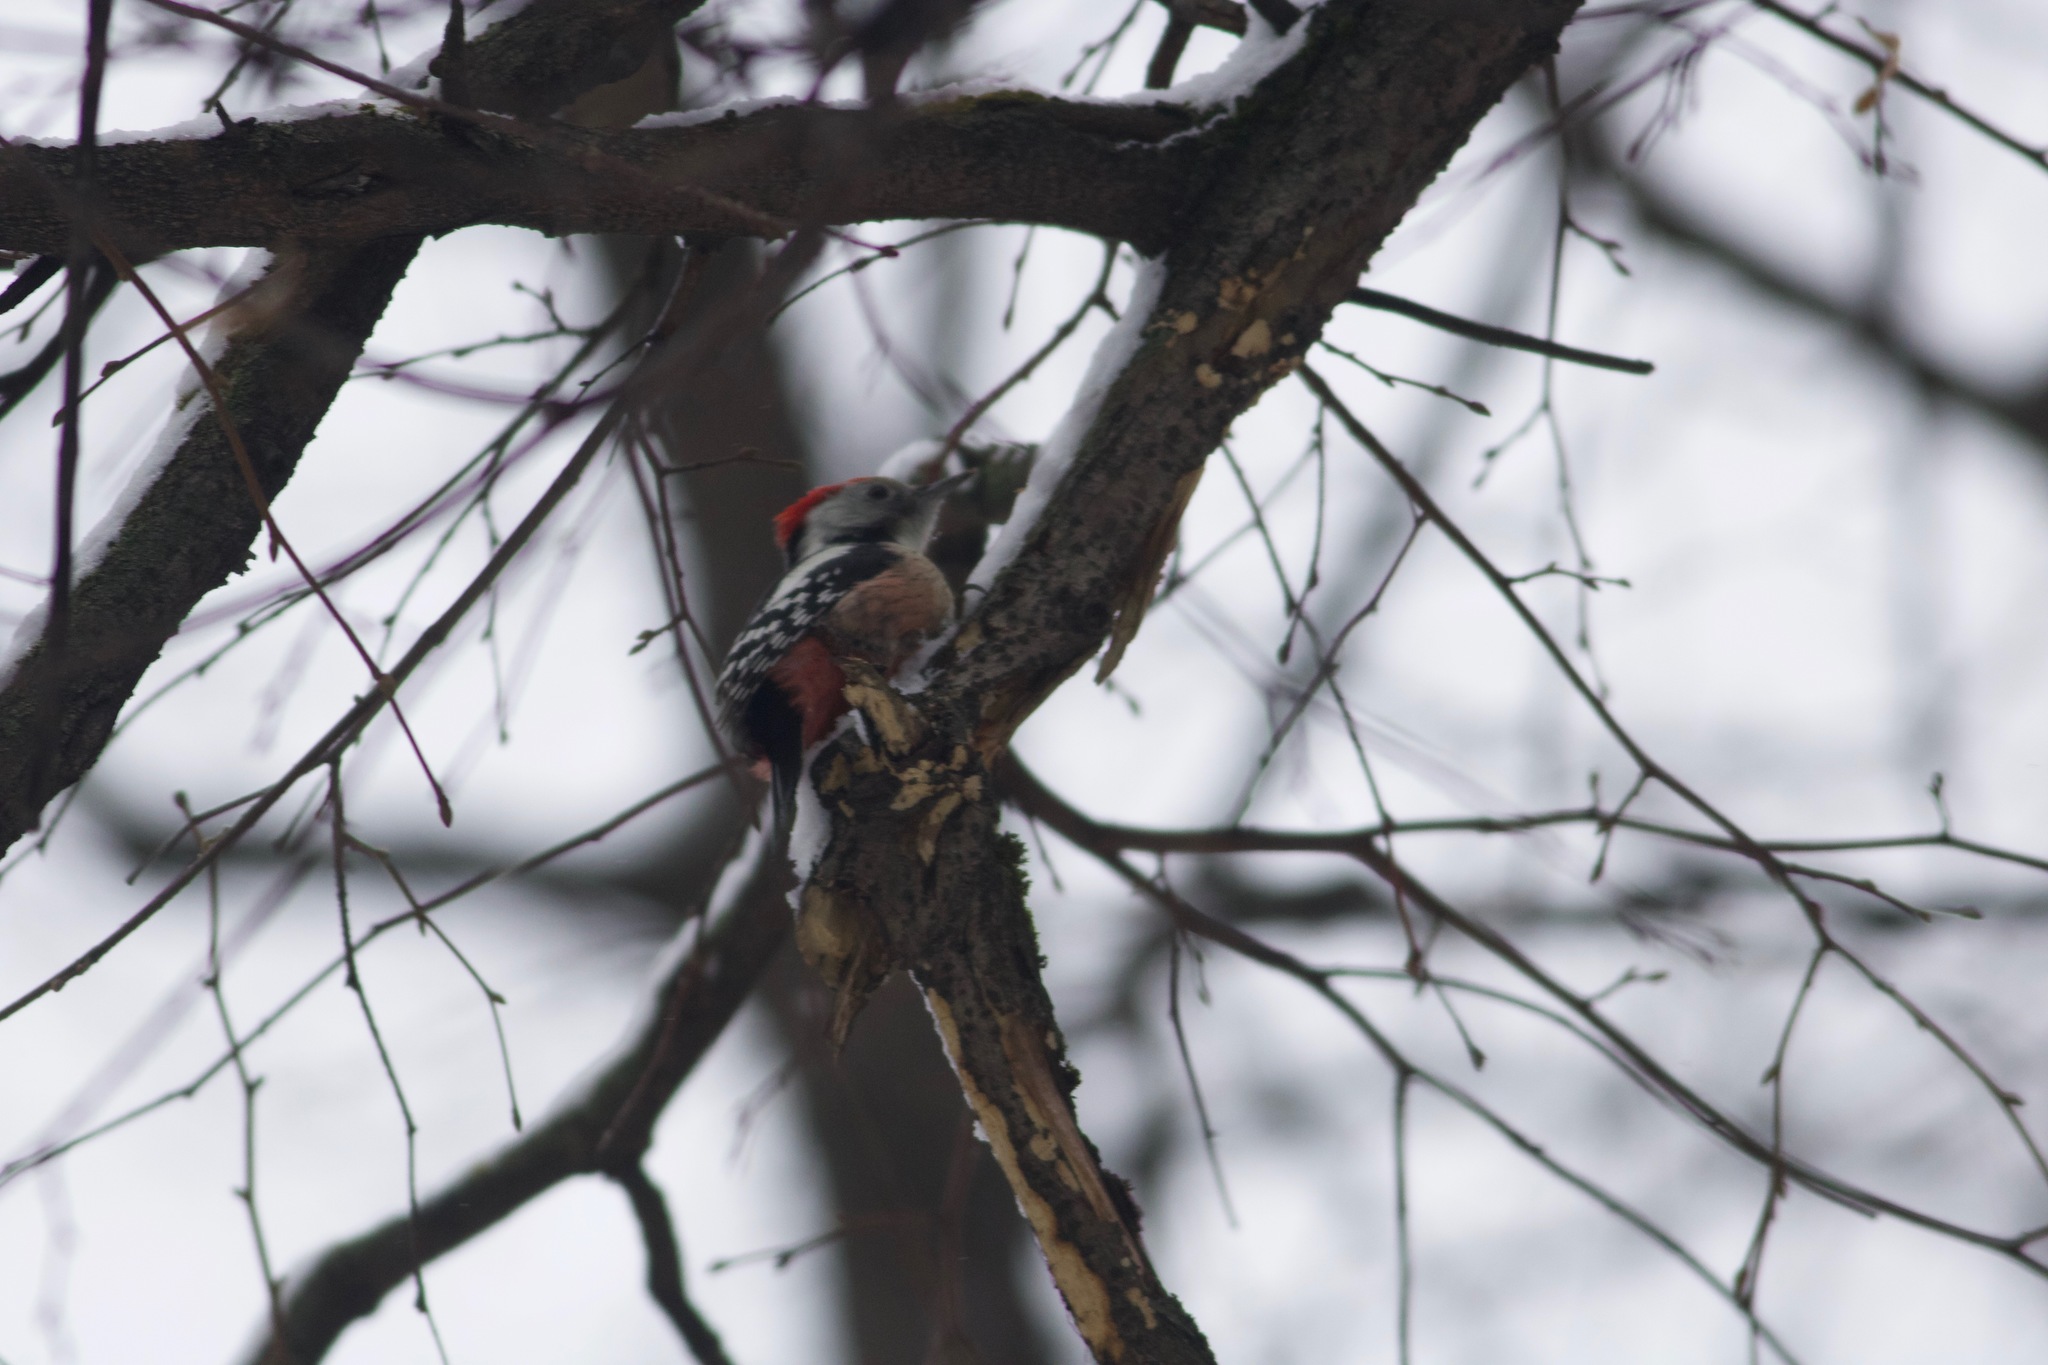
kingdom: Animalia
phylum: Chordata
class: Aves
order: Piciformes
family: Picidae
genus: Dendrocoptes
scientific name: Dendrocoptes medius
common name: Middle spotted woodpecker
